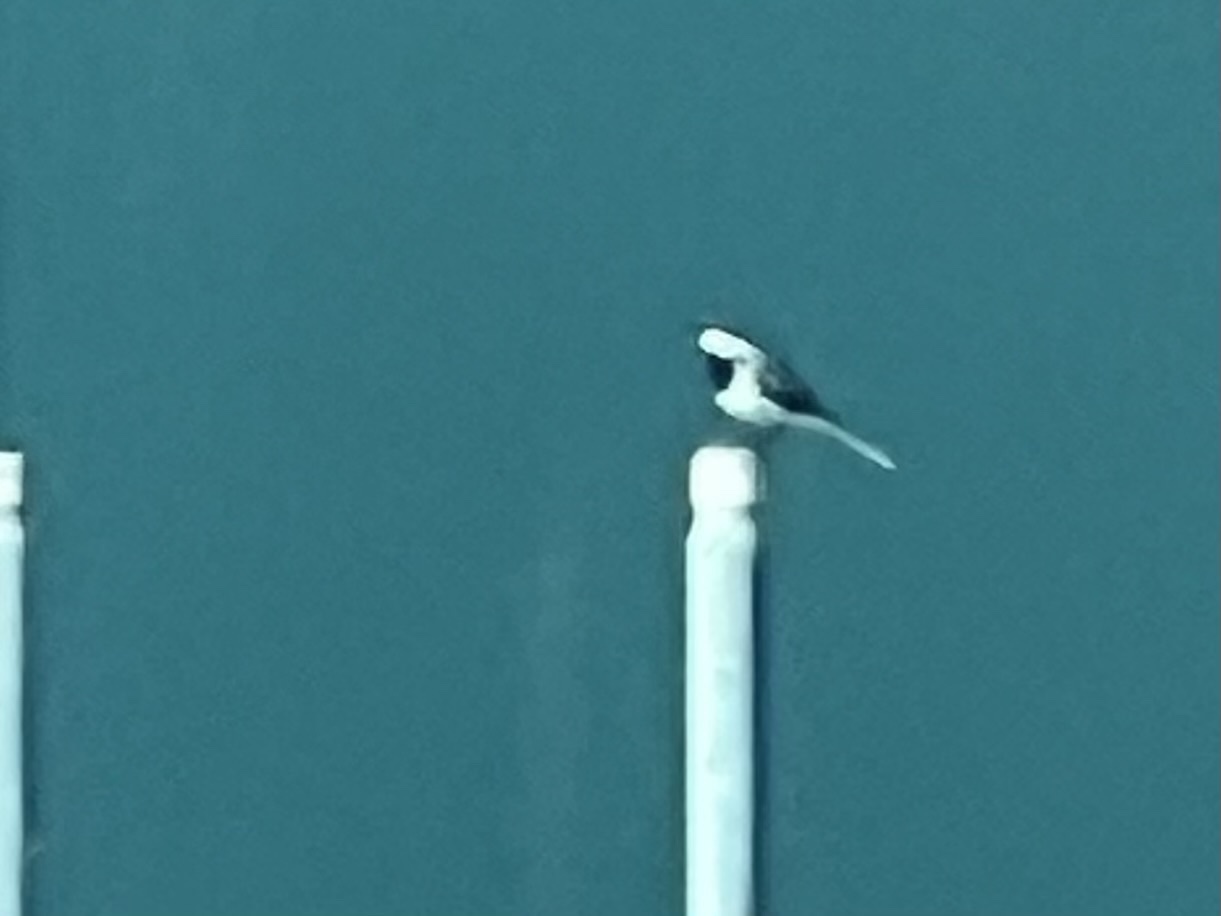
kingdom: Animalia
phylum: Chordata
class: Aves
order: Passeriformes
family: Motacillidae
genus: Motacilla
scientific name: Motacilla alba
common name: White wagtail
